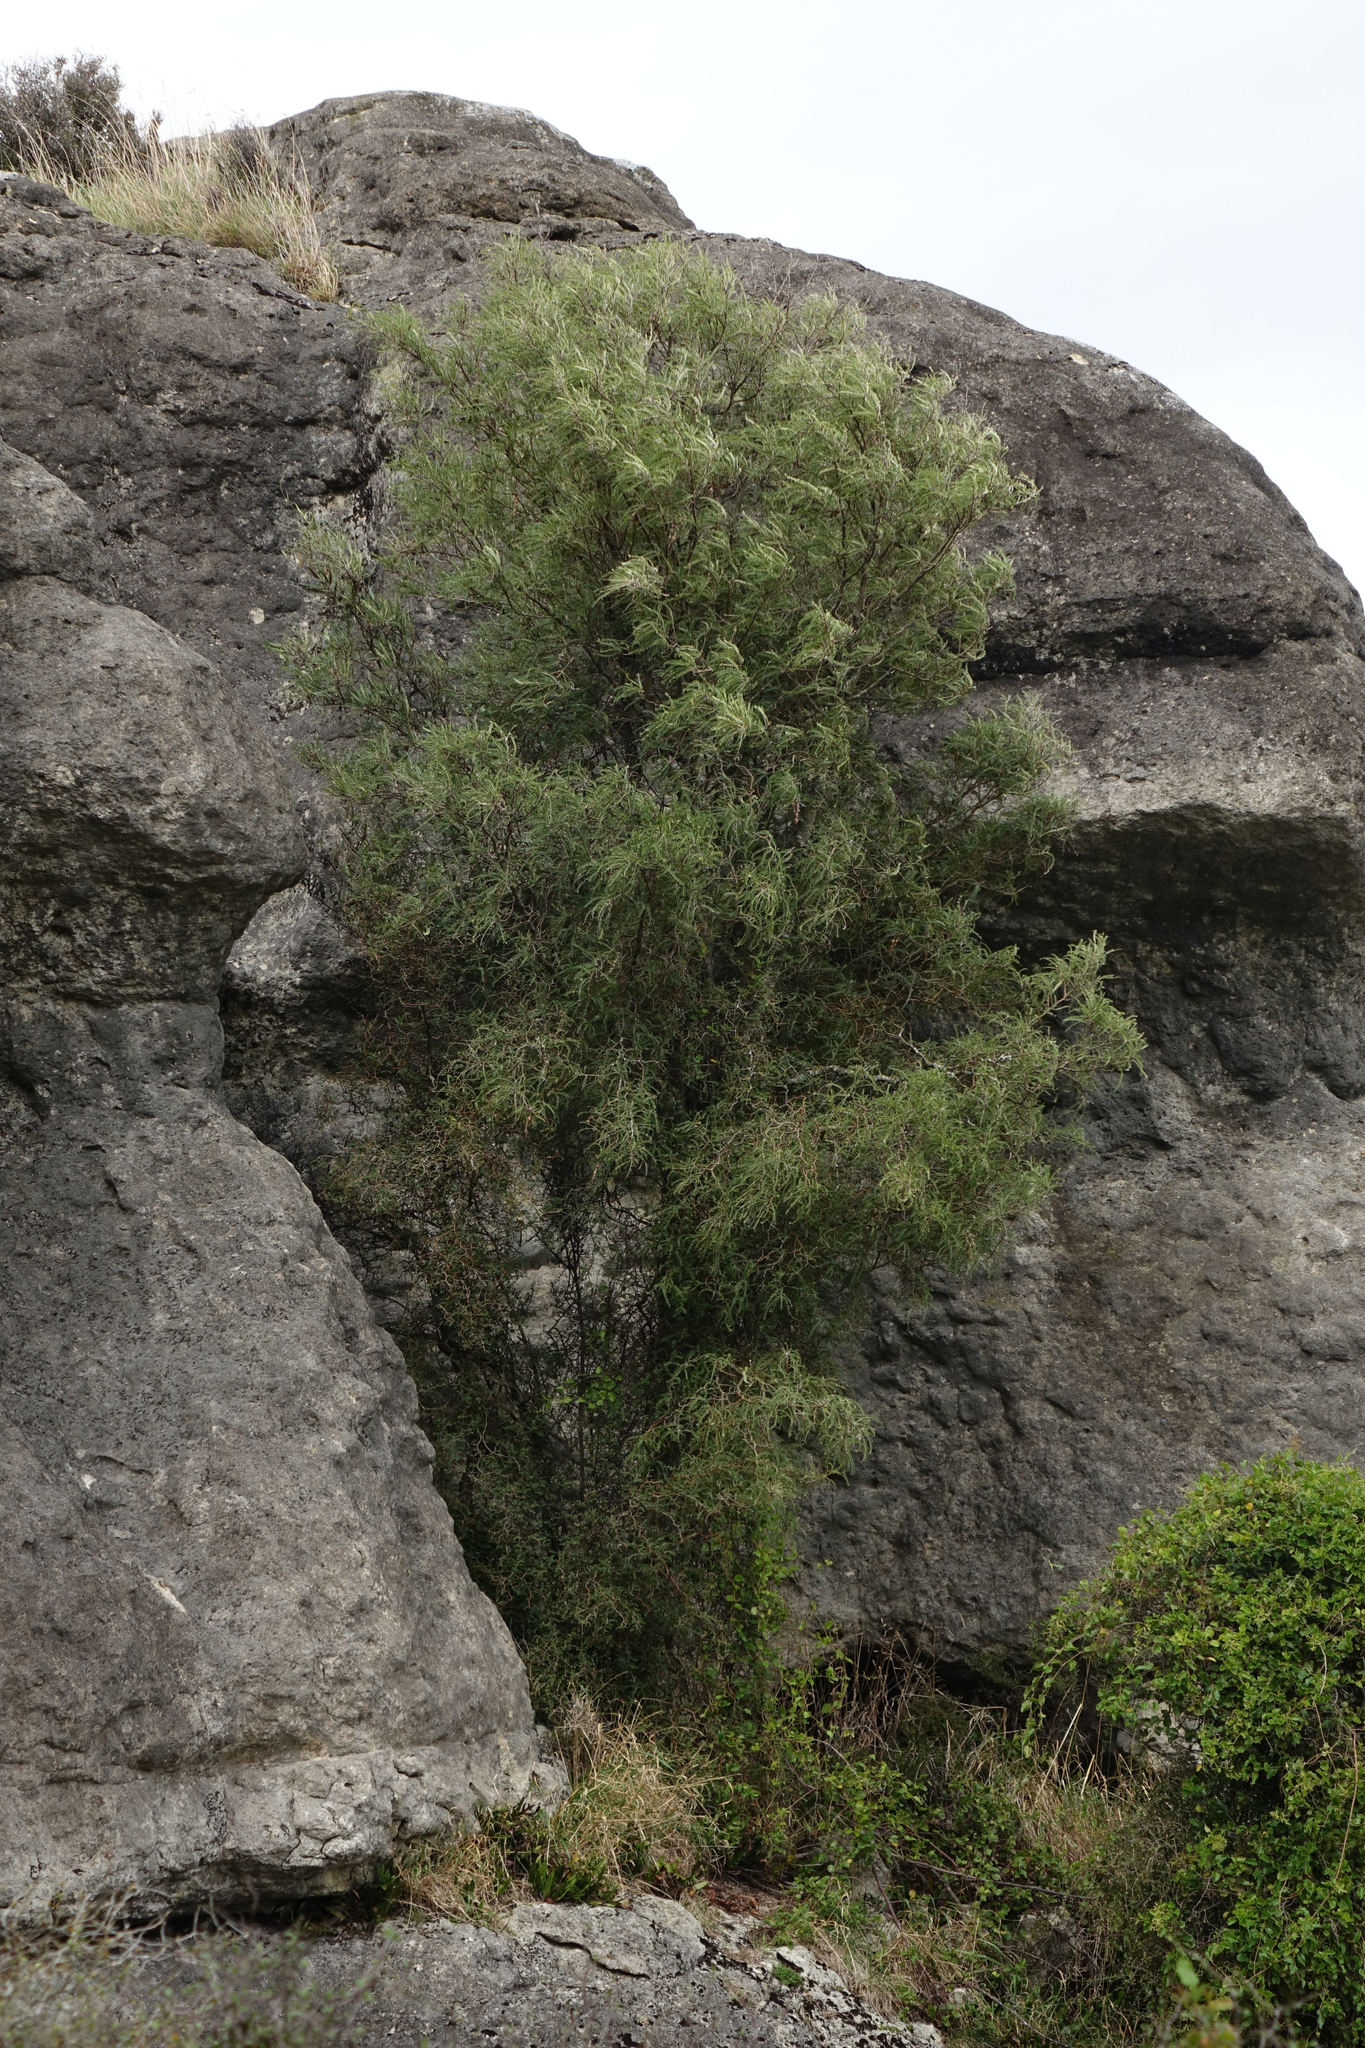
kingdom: Plantae
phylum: Tracheophyta
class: Magnoliopsida
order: Fabales
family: Fabaceae
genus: Sophora
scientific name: Sophora microphylla
